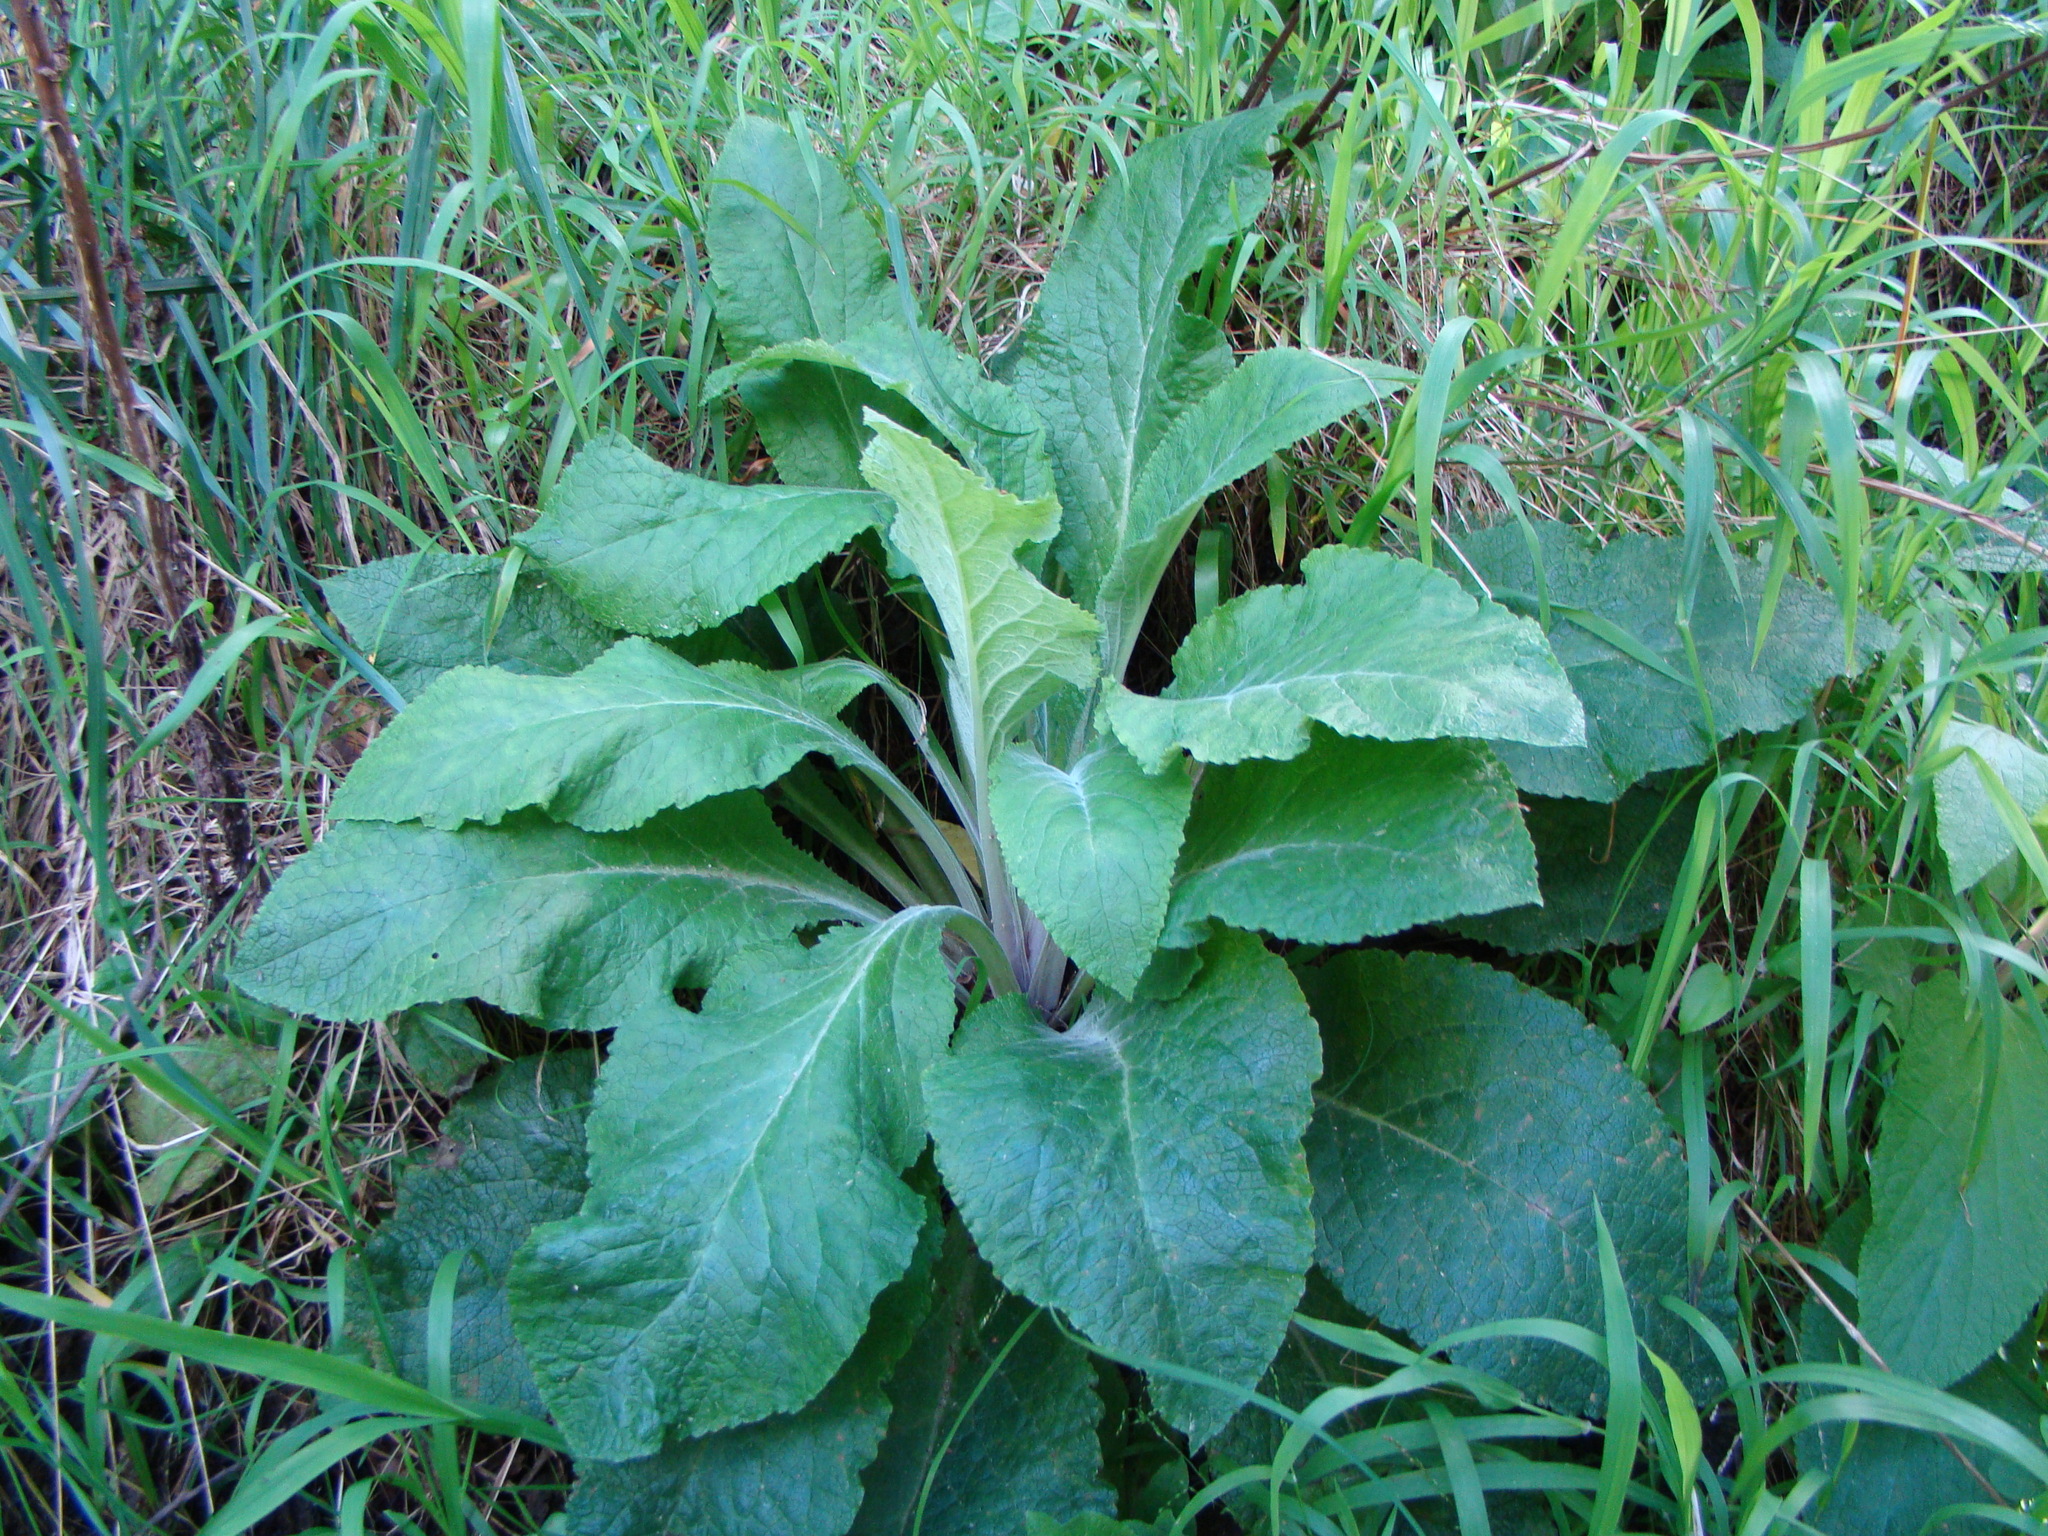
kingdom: Plantae
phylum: Tracheophyta
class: Magnoliopsida
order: Lamiales
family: Plantaginaceae
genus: Digitalis
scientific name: Digitalis purpurea
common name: Foxglove
